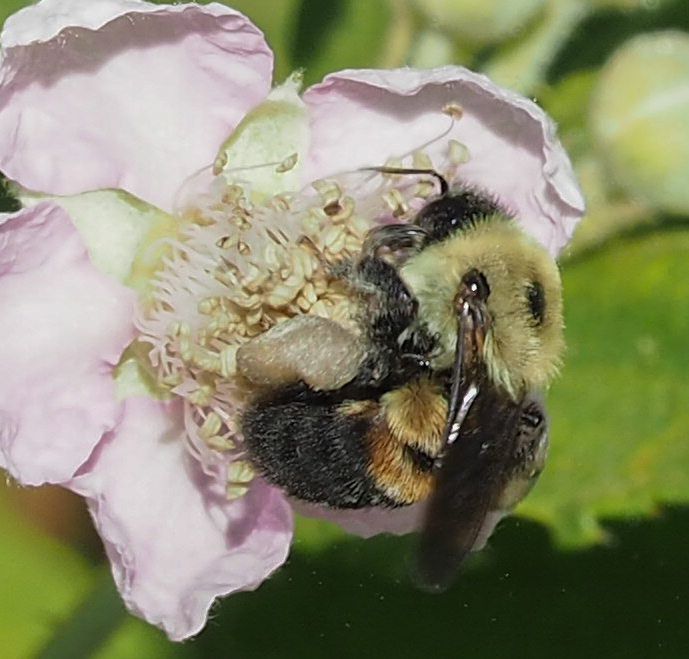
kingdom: Animalia
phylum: Arthropoda
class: Insecta
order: Hymenoptera
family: Apidae
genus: Bombus
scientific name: Bombus griseocollis
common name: Brown-belted bumble bee
